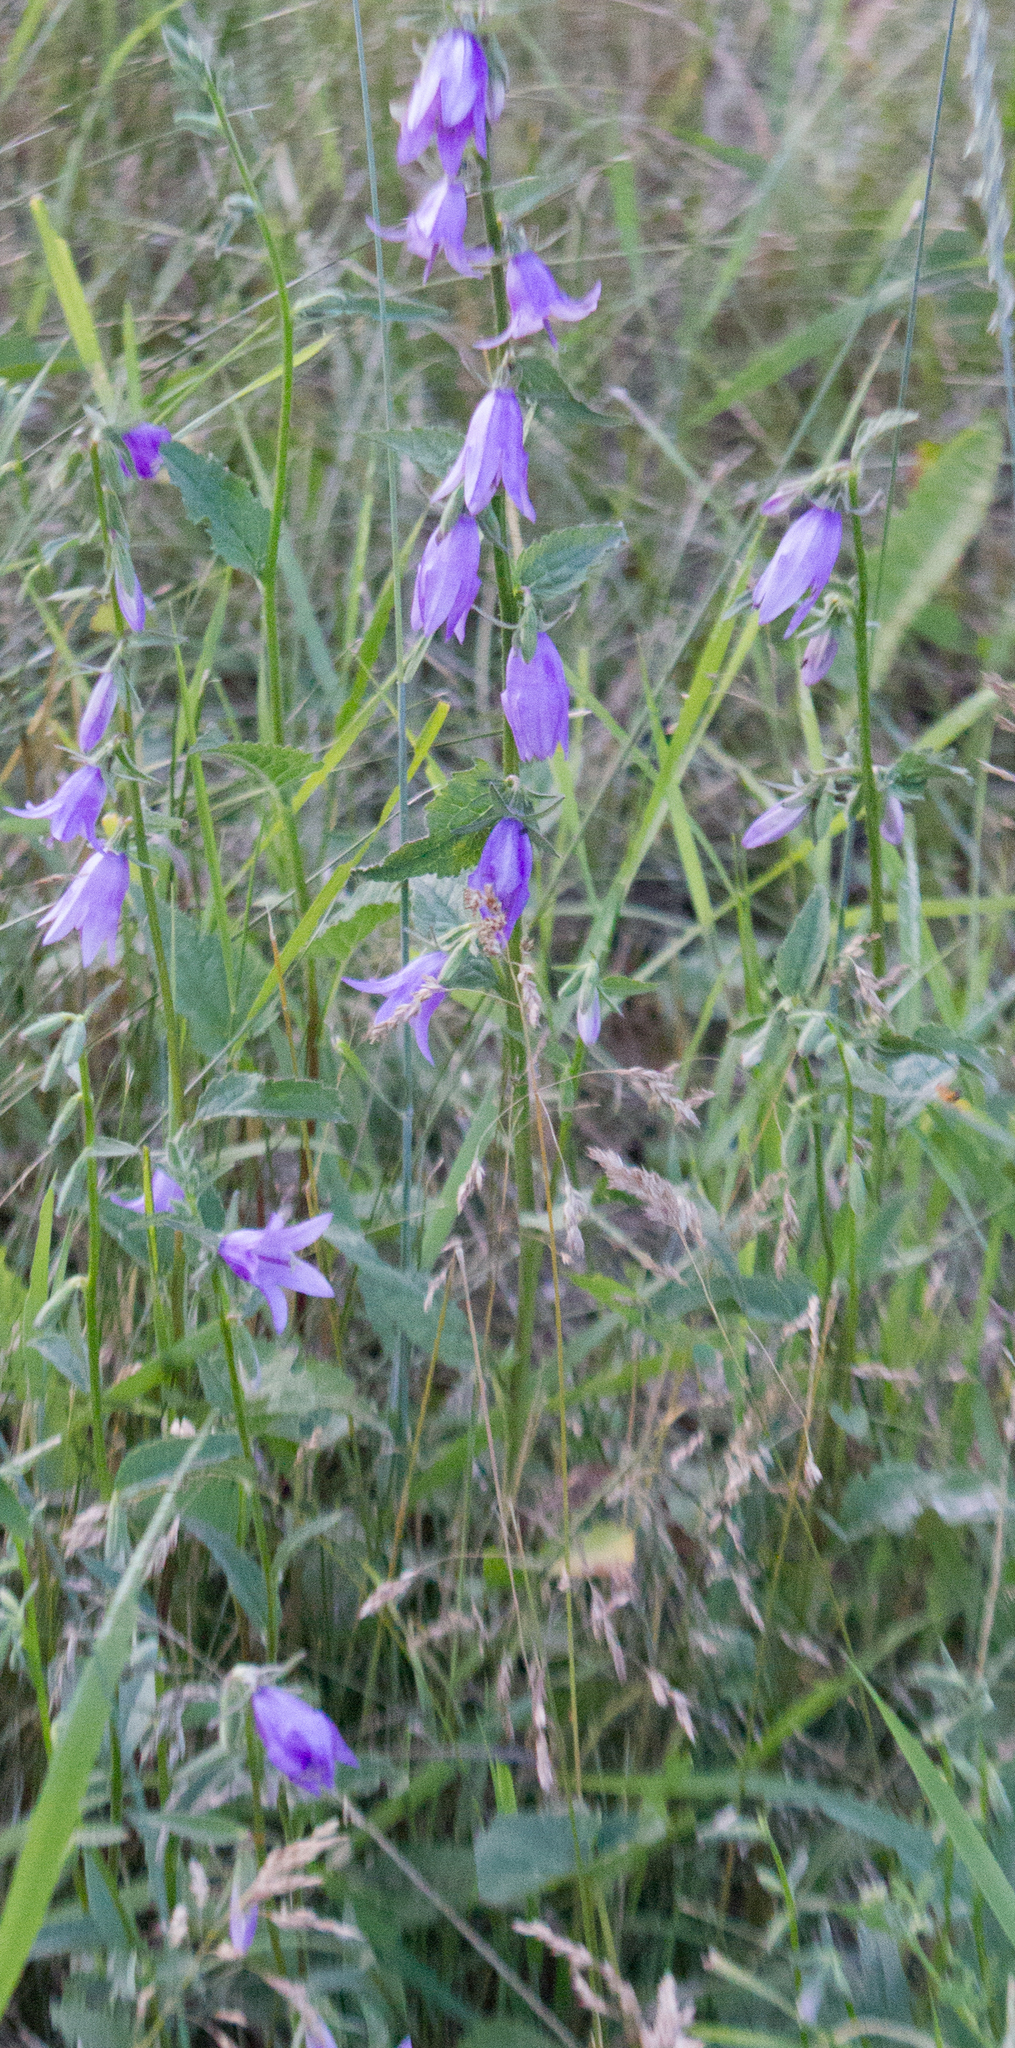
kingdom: Plantae
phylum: Tracheophyta
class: Magnoliopsida
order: Asterales
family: Campanulaceae
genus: Campanula
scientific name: Campanula rapunculoides
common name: Creeping bellflower
